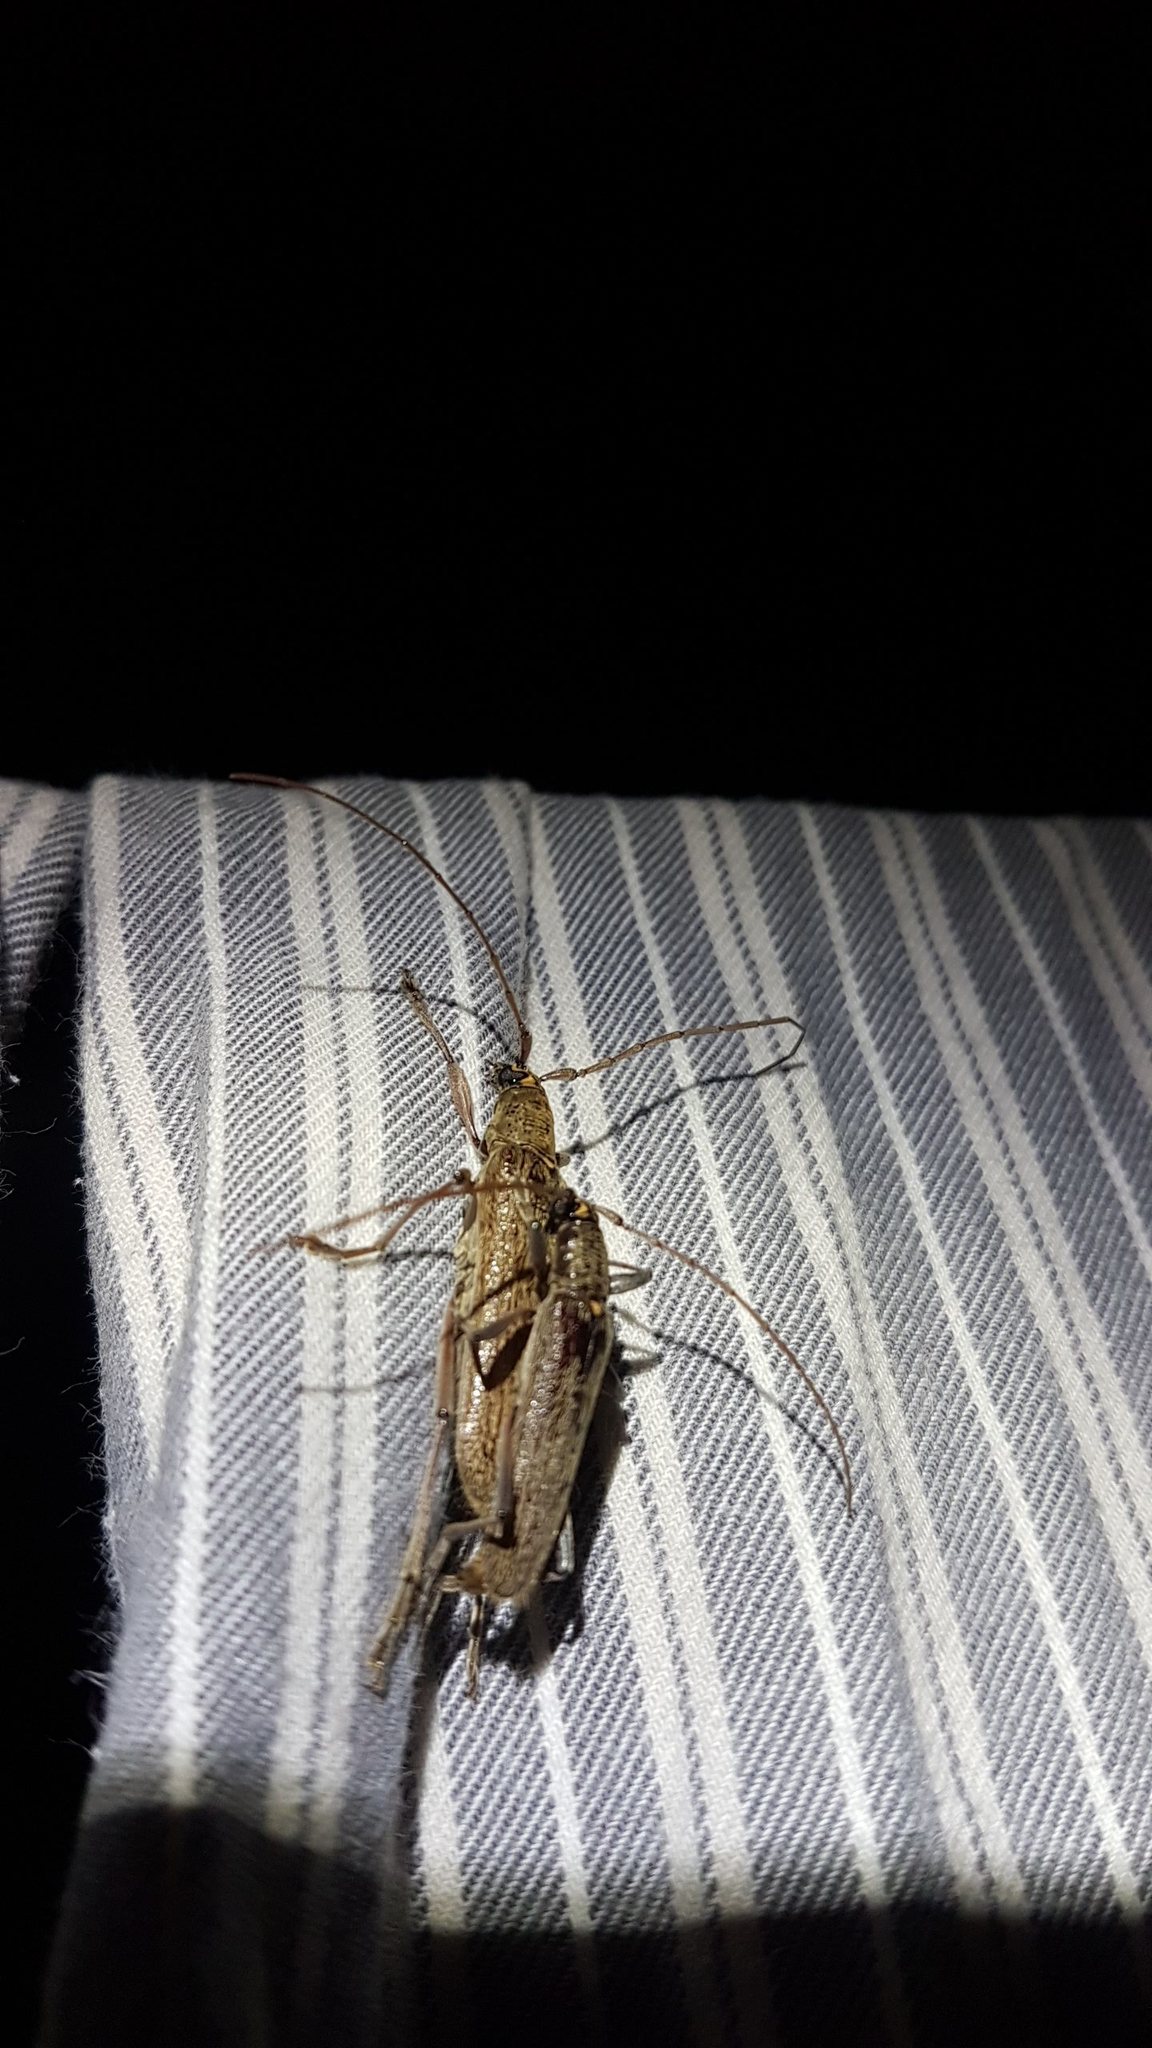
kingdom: Animalia
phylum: Arthropoda
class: Insecta
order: Coleoptera
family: Cerambycidae
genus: Oemona
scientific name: Oemona hirta
